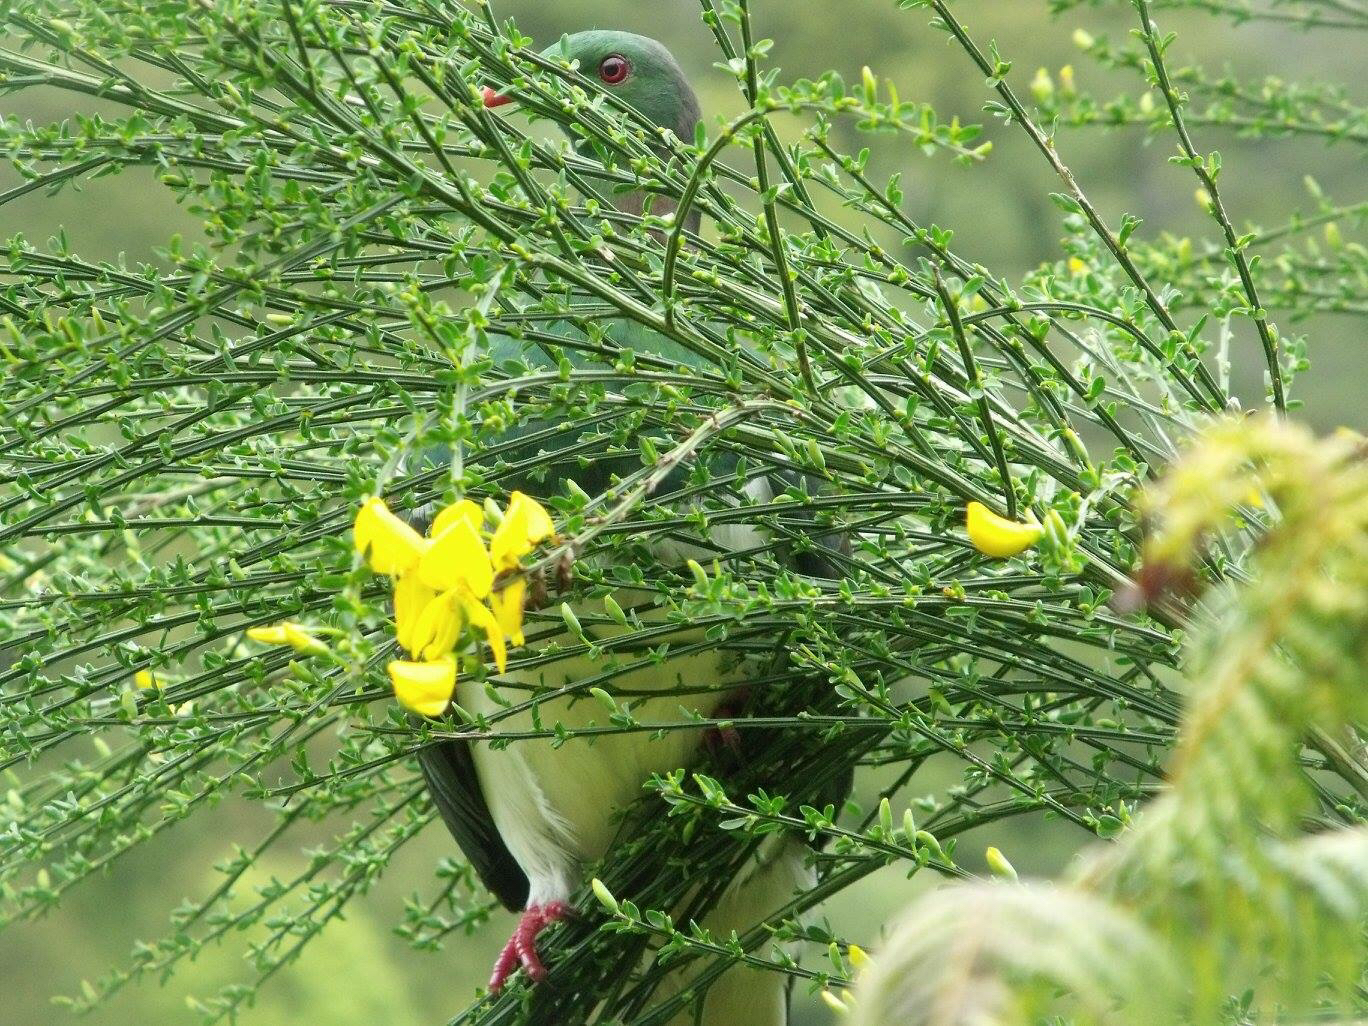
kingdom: Animalia
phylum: Chordata
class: Aves
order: Columbiformes
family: Columbidae
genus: Hemiphaga
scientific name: Hemiphaga novaeseelandiae
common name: New zealand pigeon
